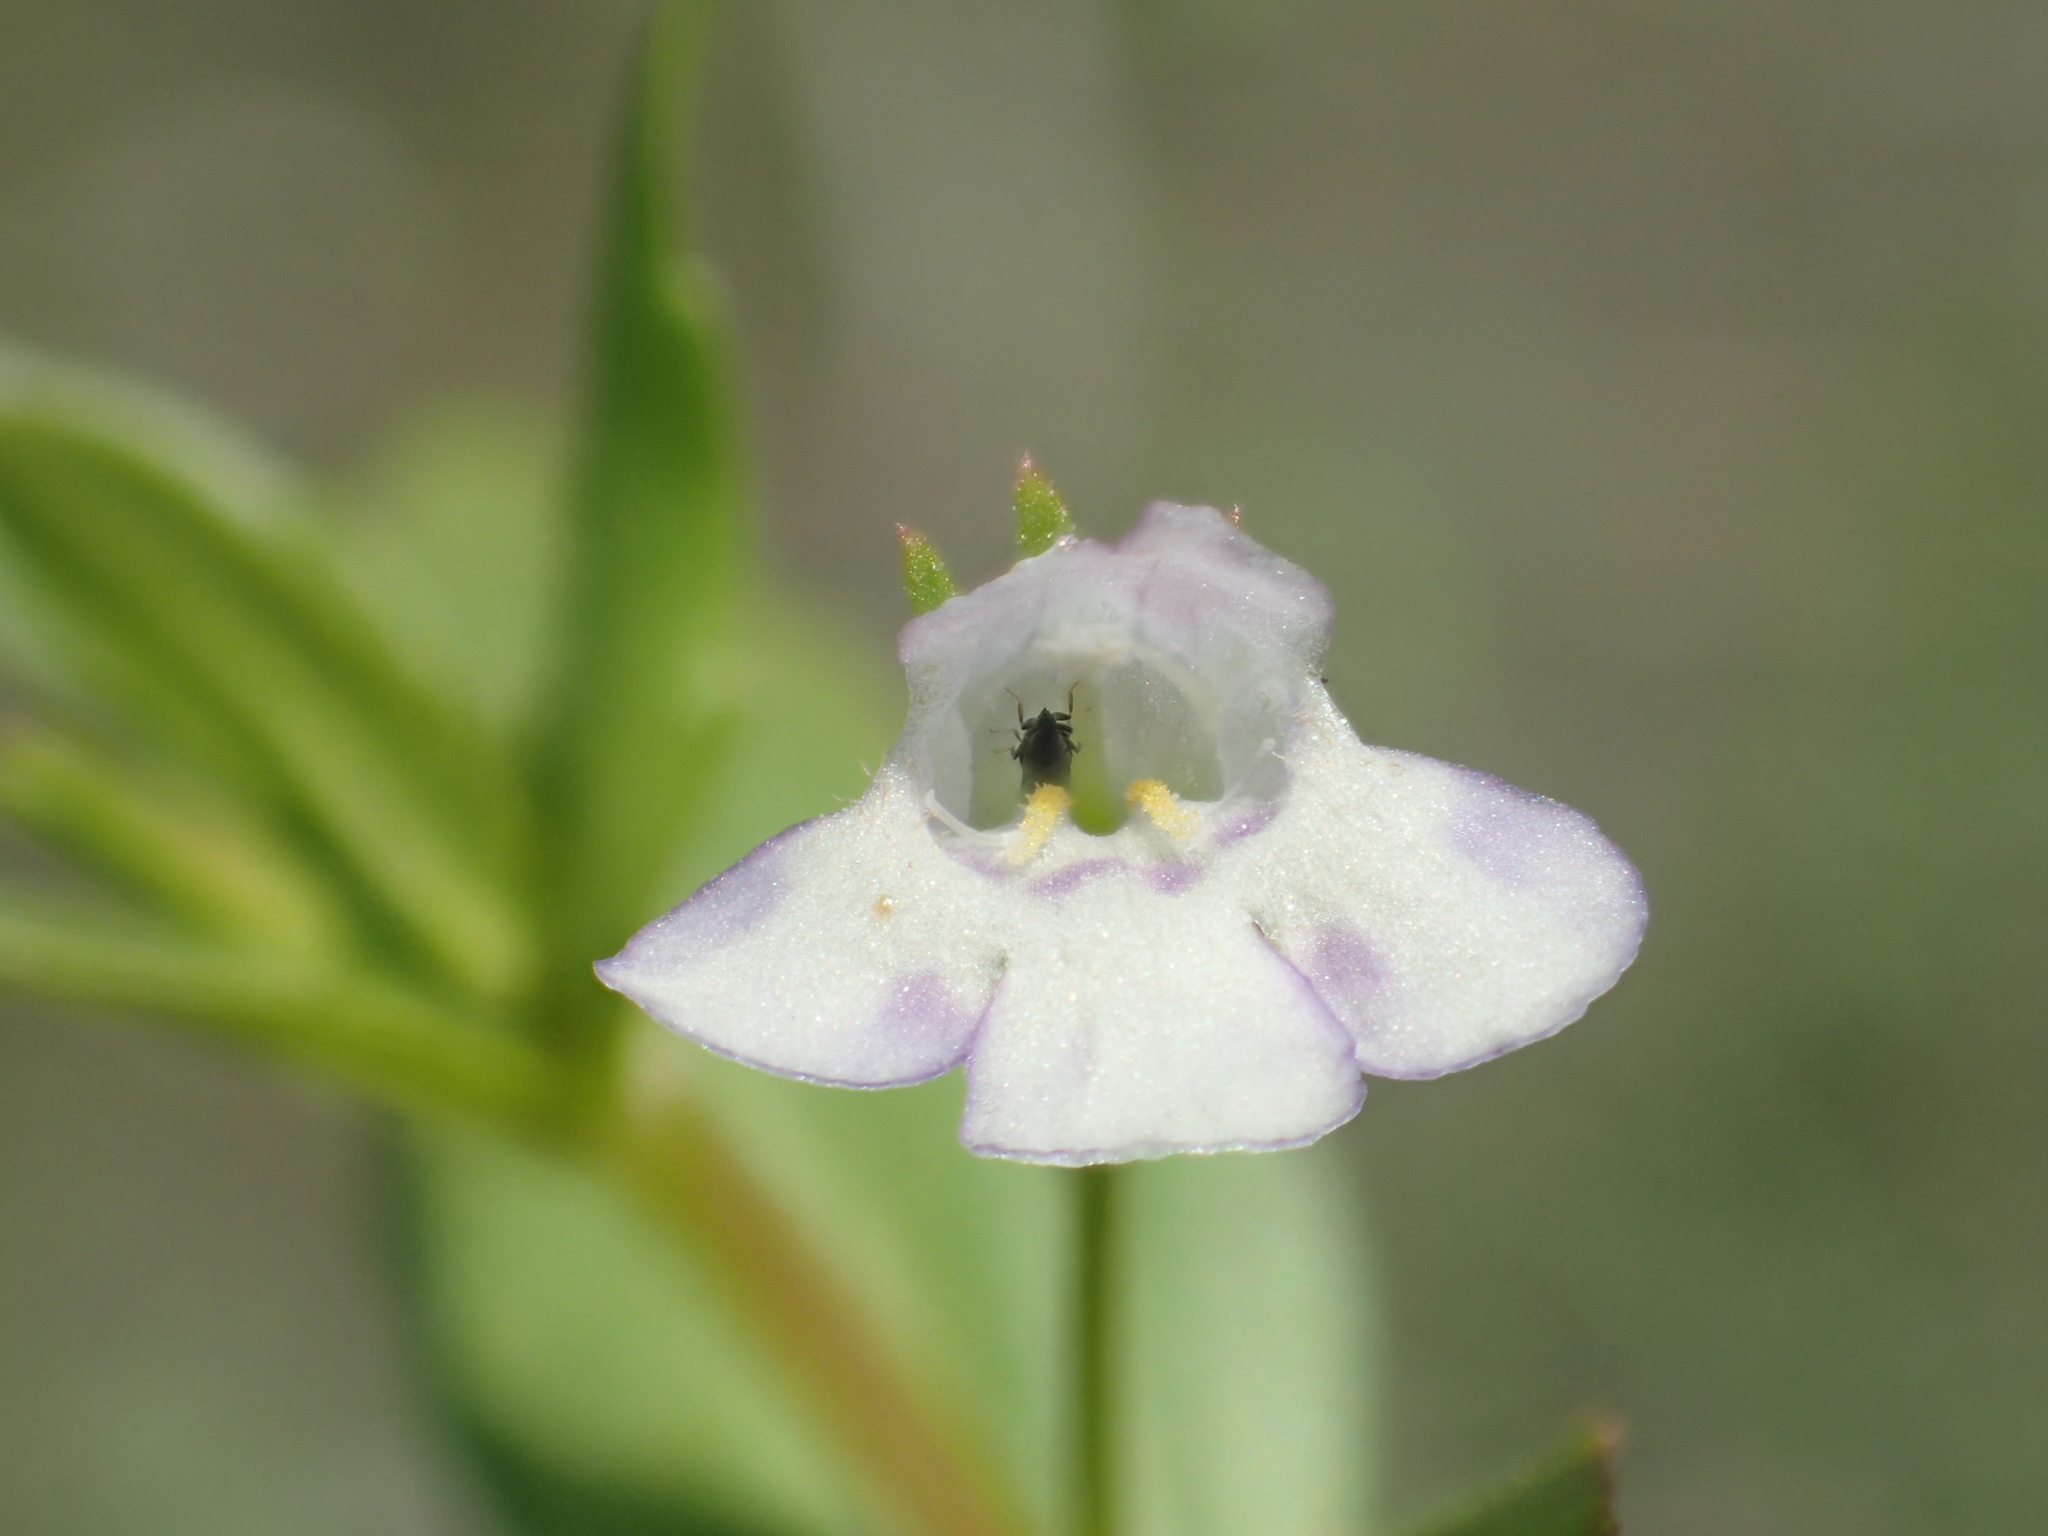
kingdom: Plantae
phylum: Tracheophyta
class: Magnoliopsida
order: Lamiales
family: Linderniaceae
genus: Lindernia
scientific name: Lindernia dubia
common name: Annual false pimpernel
